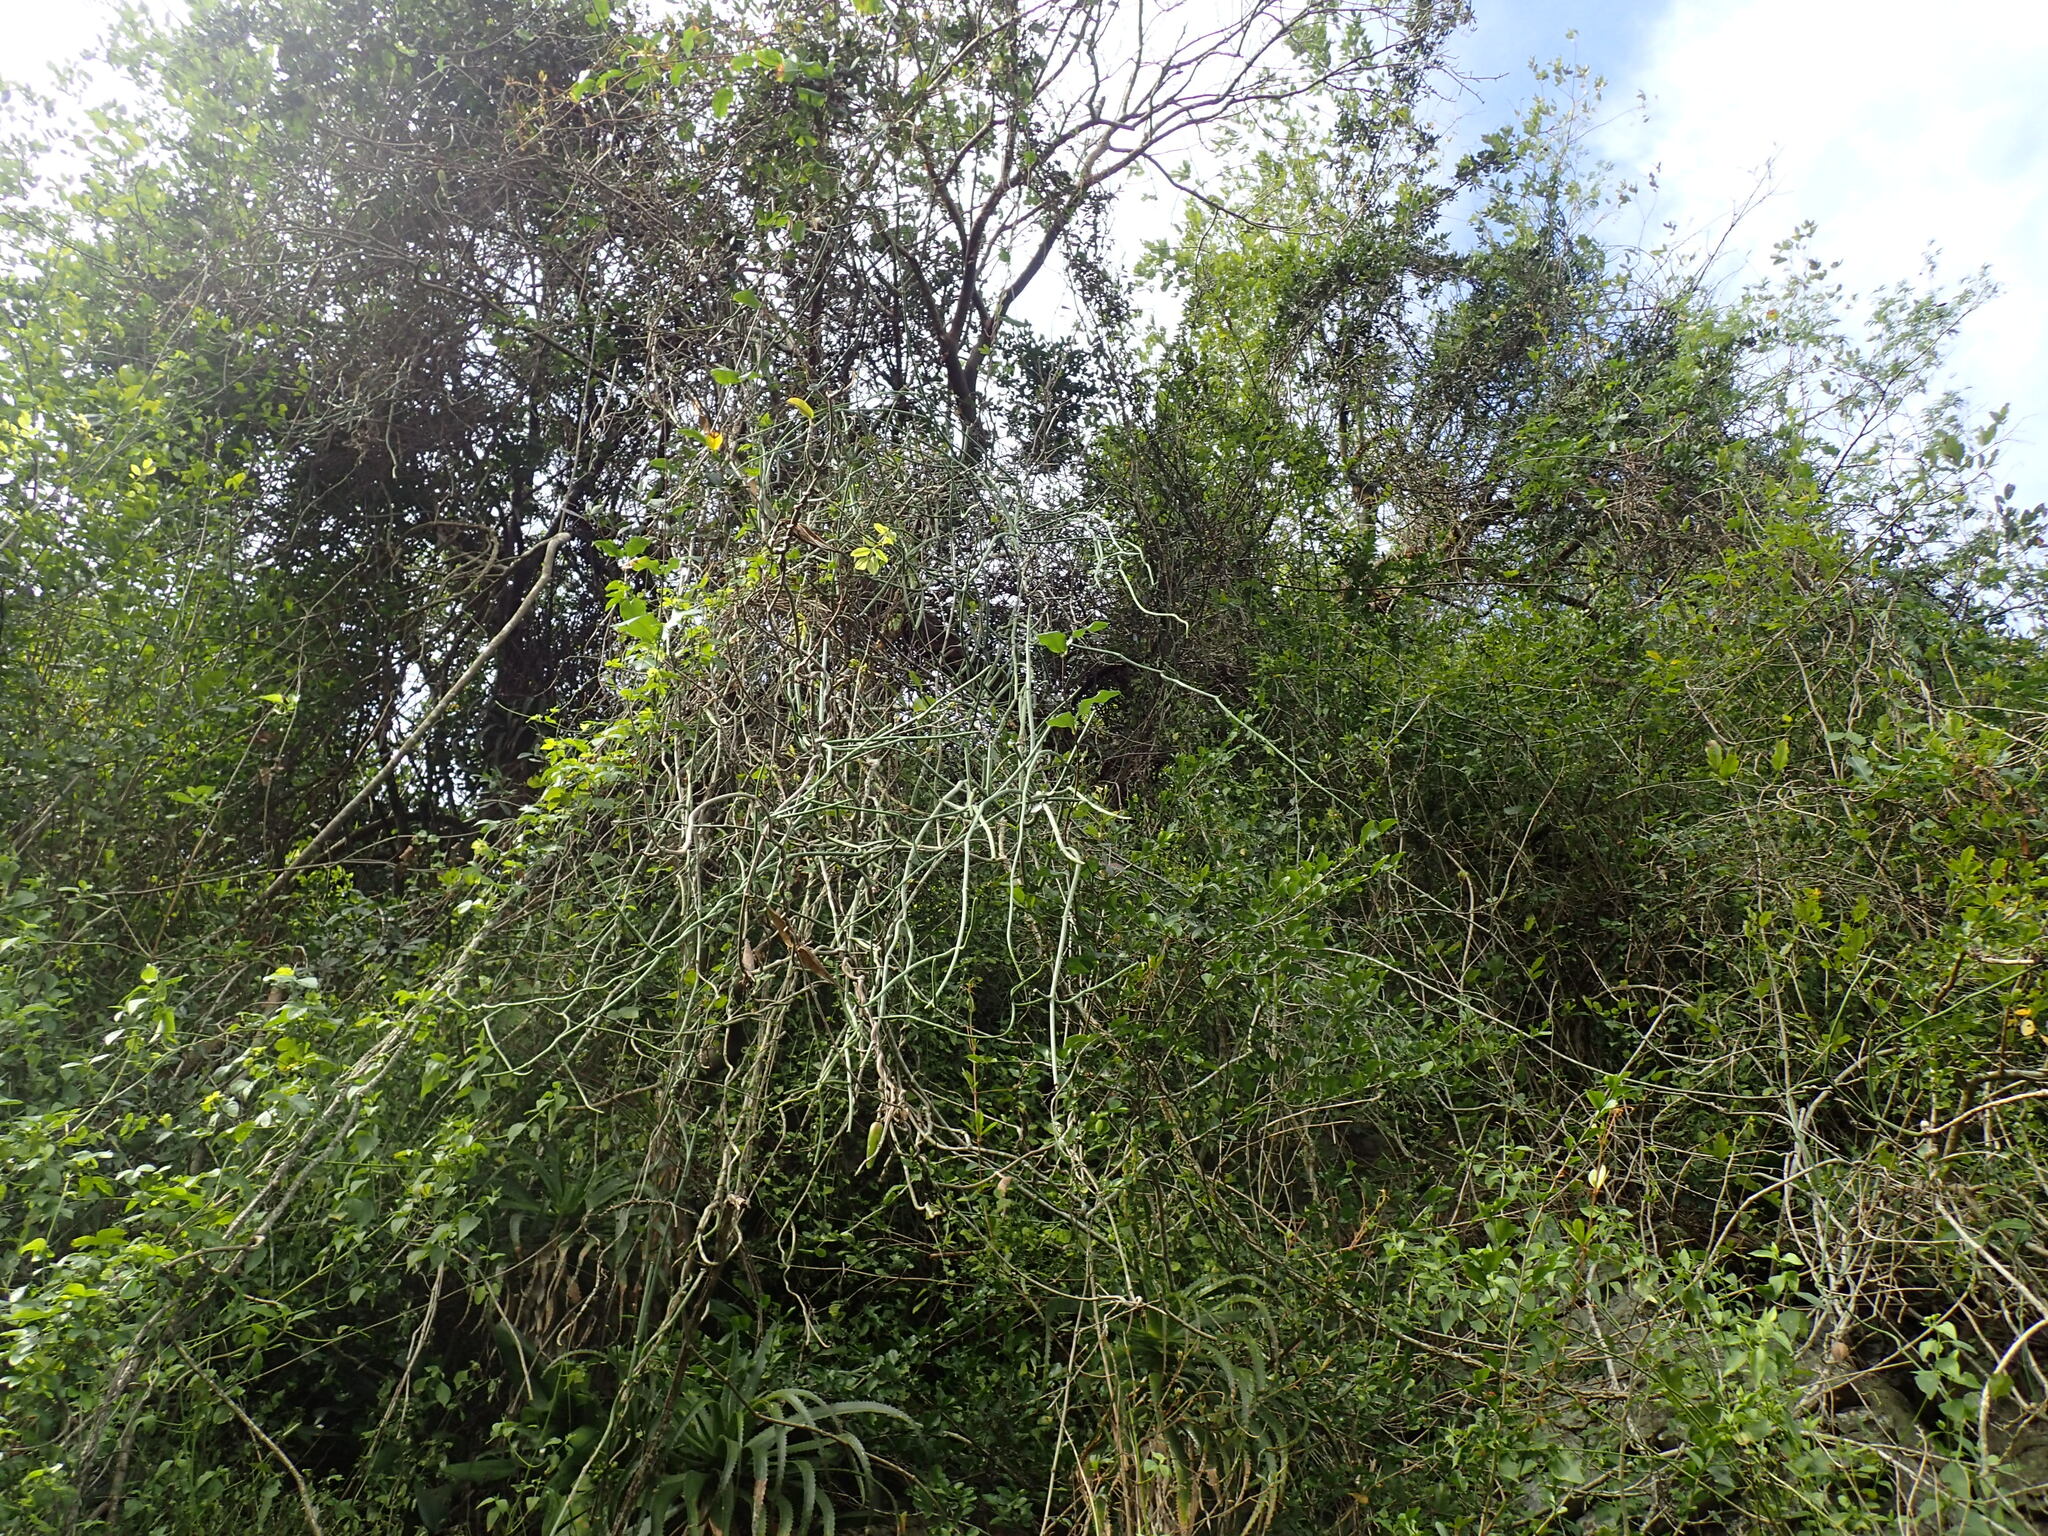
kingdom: Plantae
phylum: Tracheophyta
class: Magnoliopsida
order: Gentianales
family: Apocynaceae
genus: Cynanchum
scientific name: Cynanchum viminale
